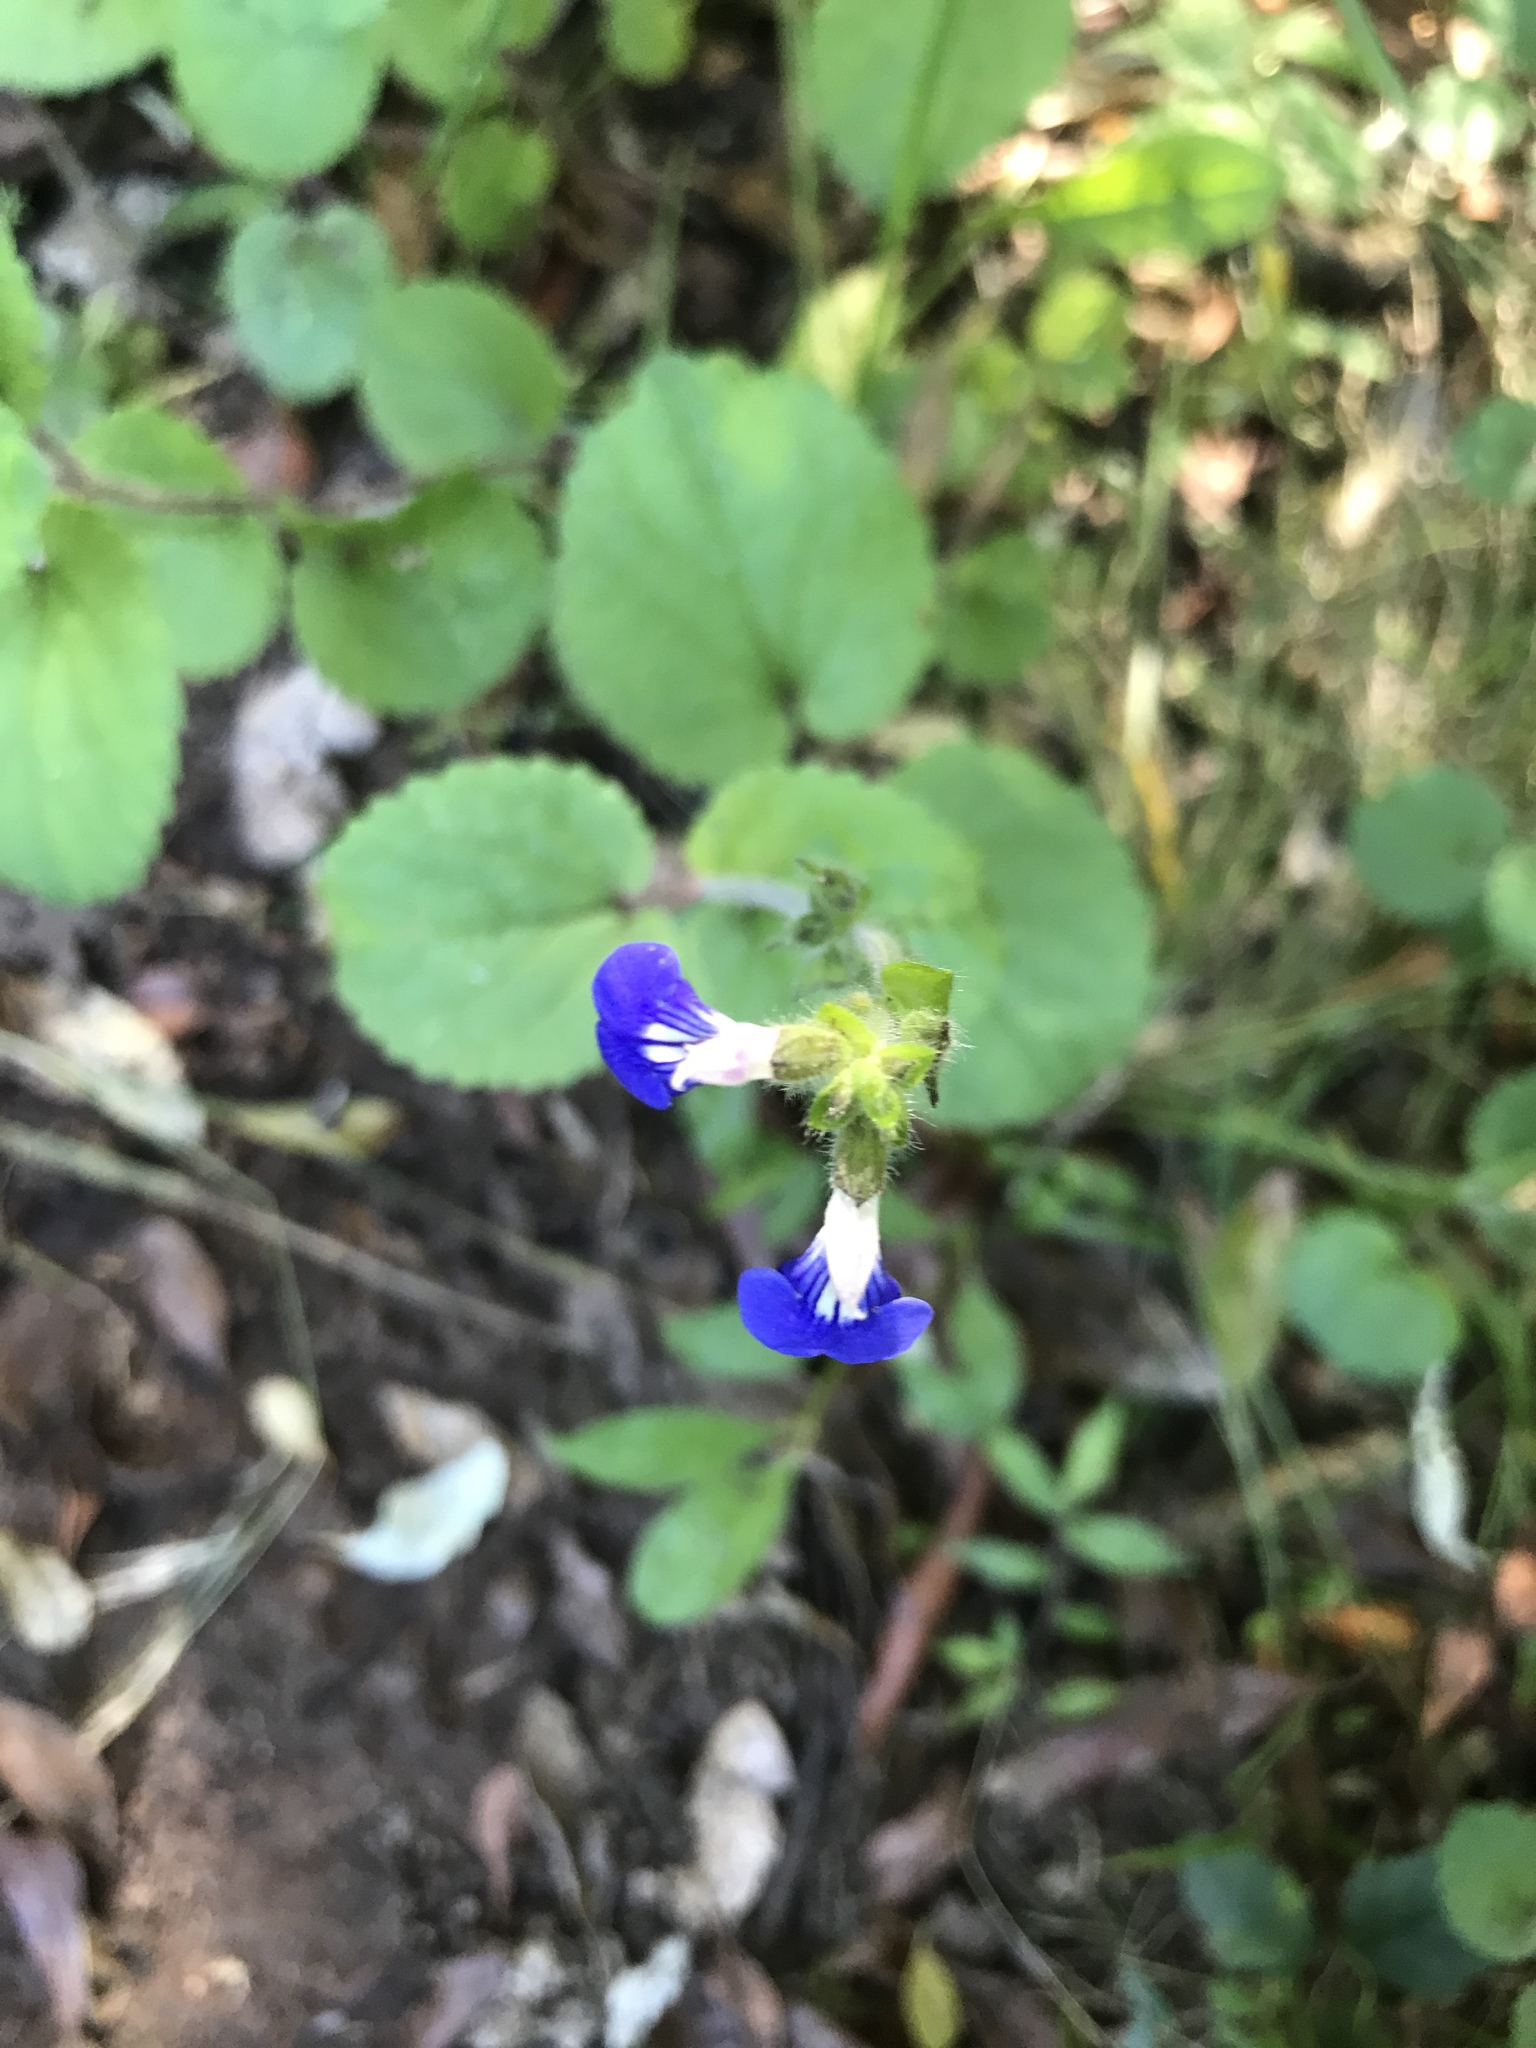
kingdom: Plantae
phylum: Tracheophyta
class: Magnoliopsida
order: Lamiales
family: Lamiaceae
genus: Salvia
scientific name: Salvia procurrens
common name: Blue creeper
